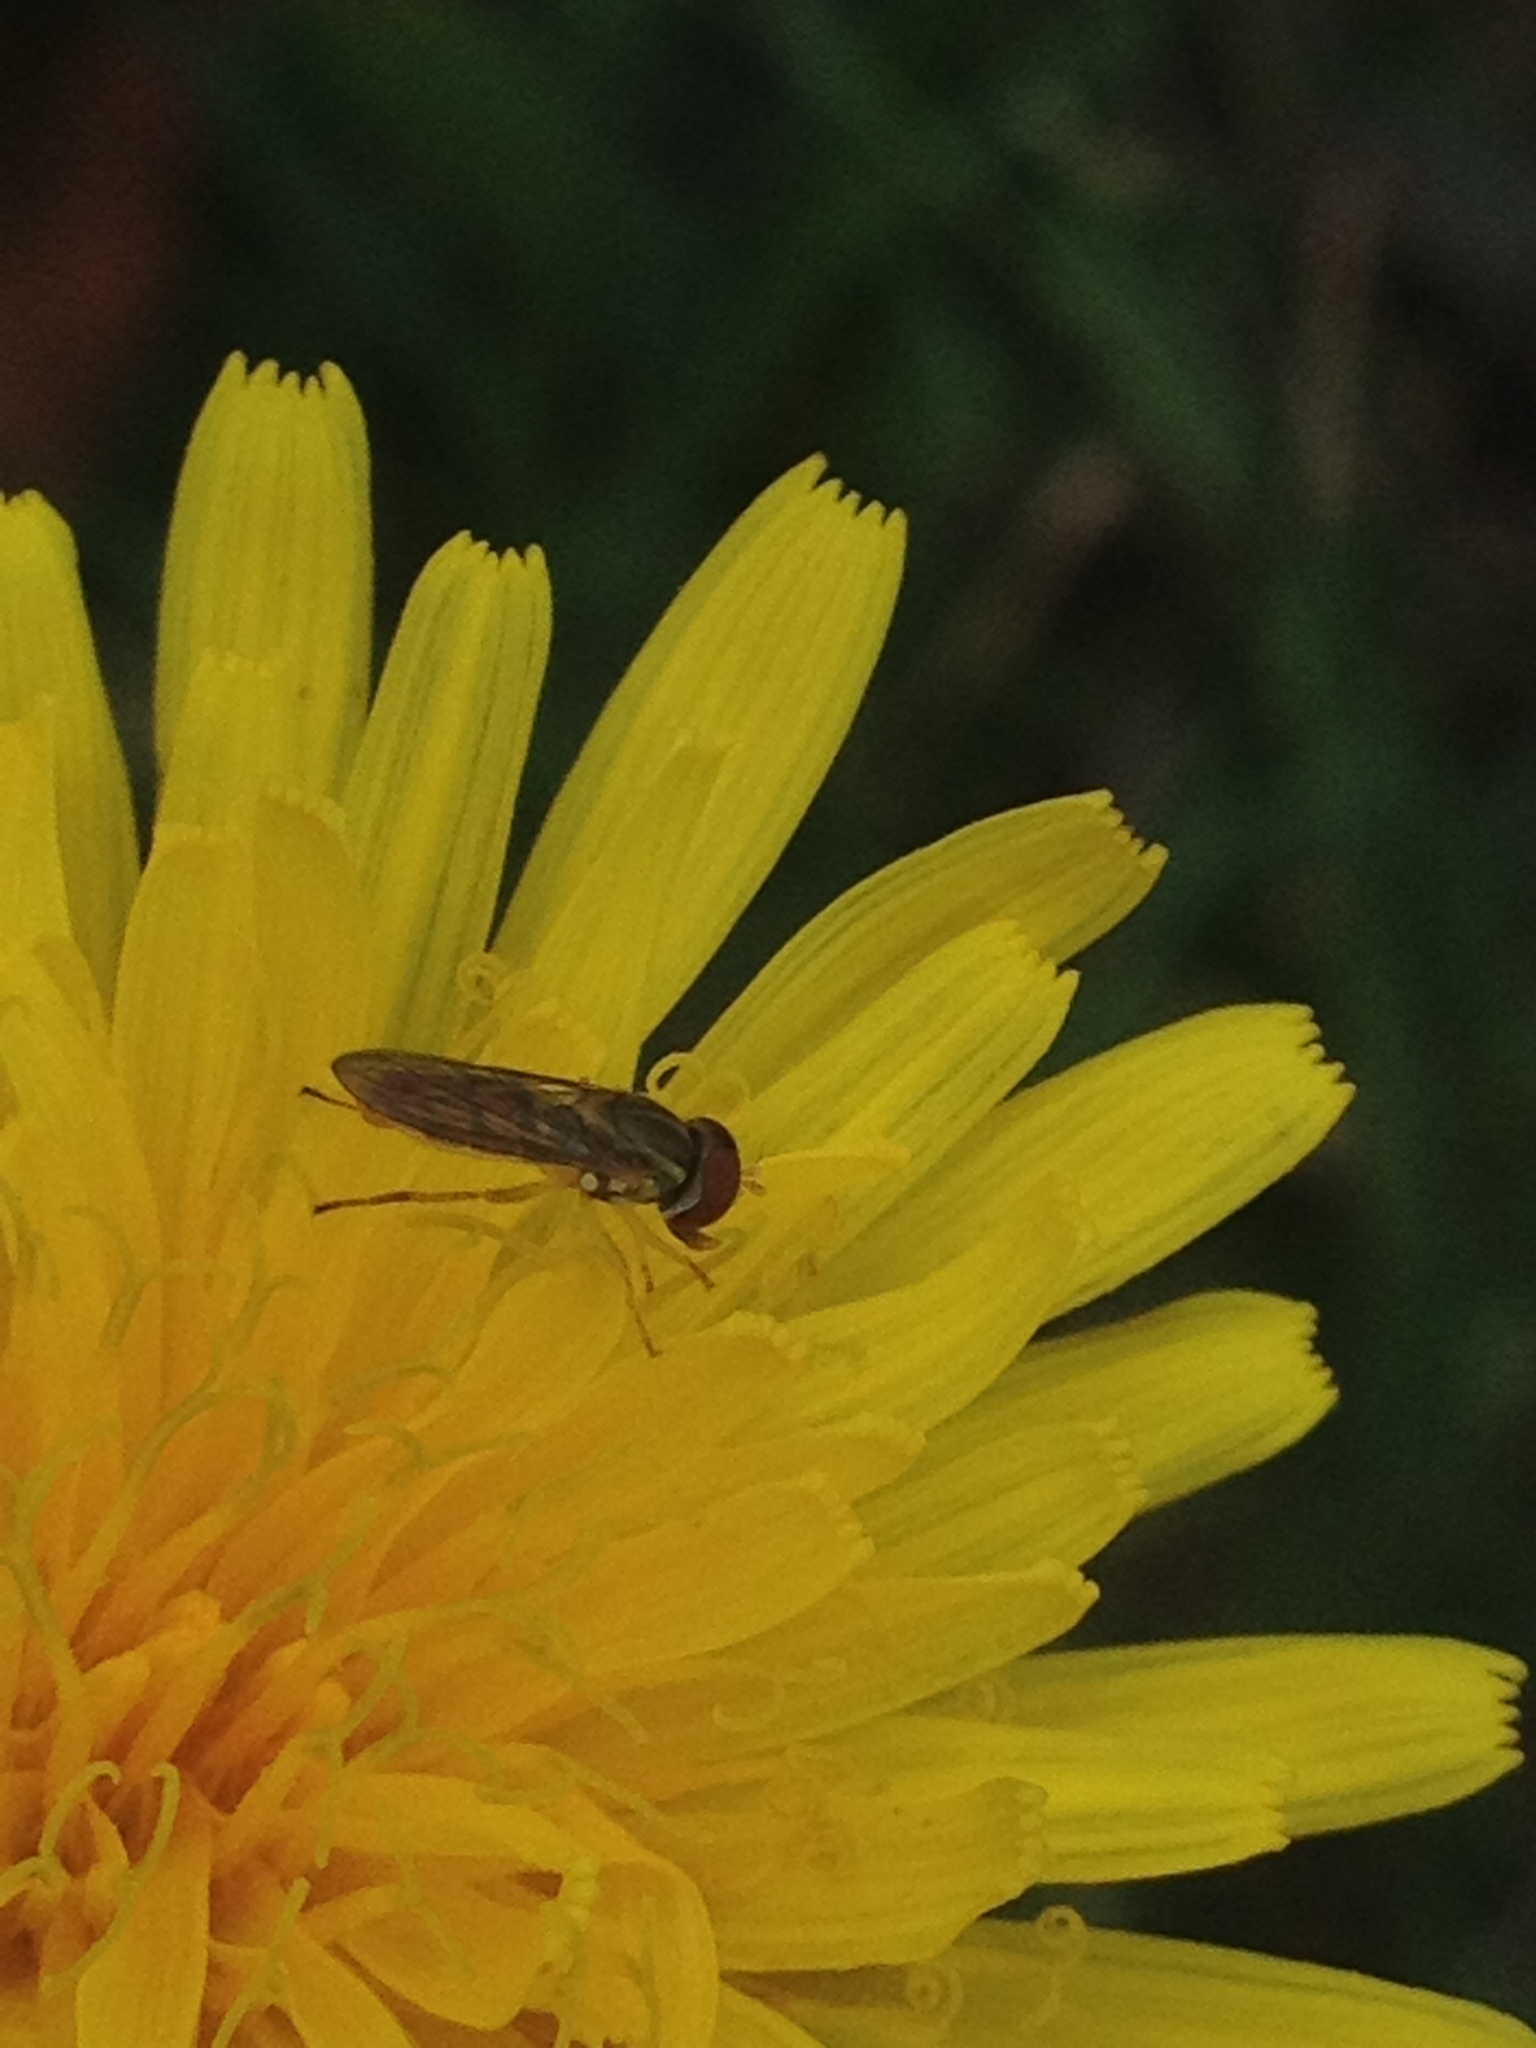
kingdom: Animalia
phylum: Arthropoda
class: Insecta
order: Diptera
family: Syrphidae
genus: Toxomerus
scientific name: Toxomerus marginatus
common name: Syrphid fly
